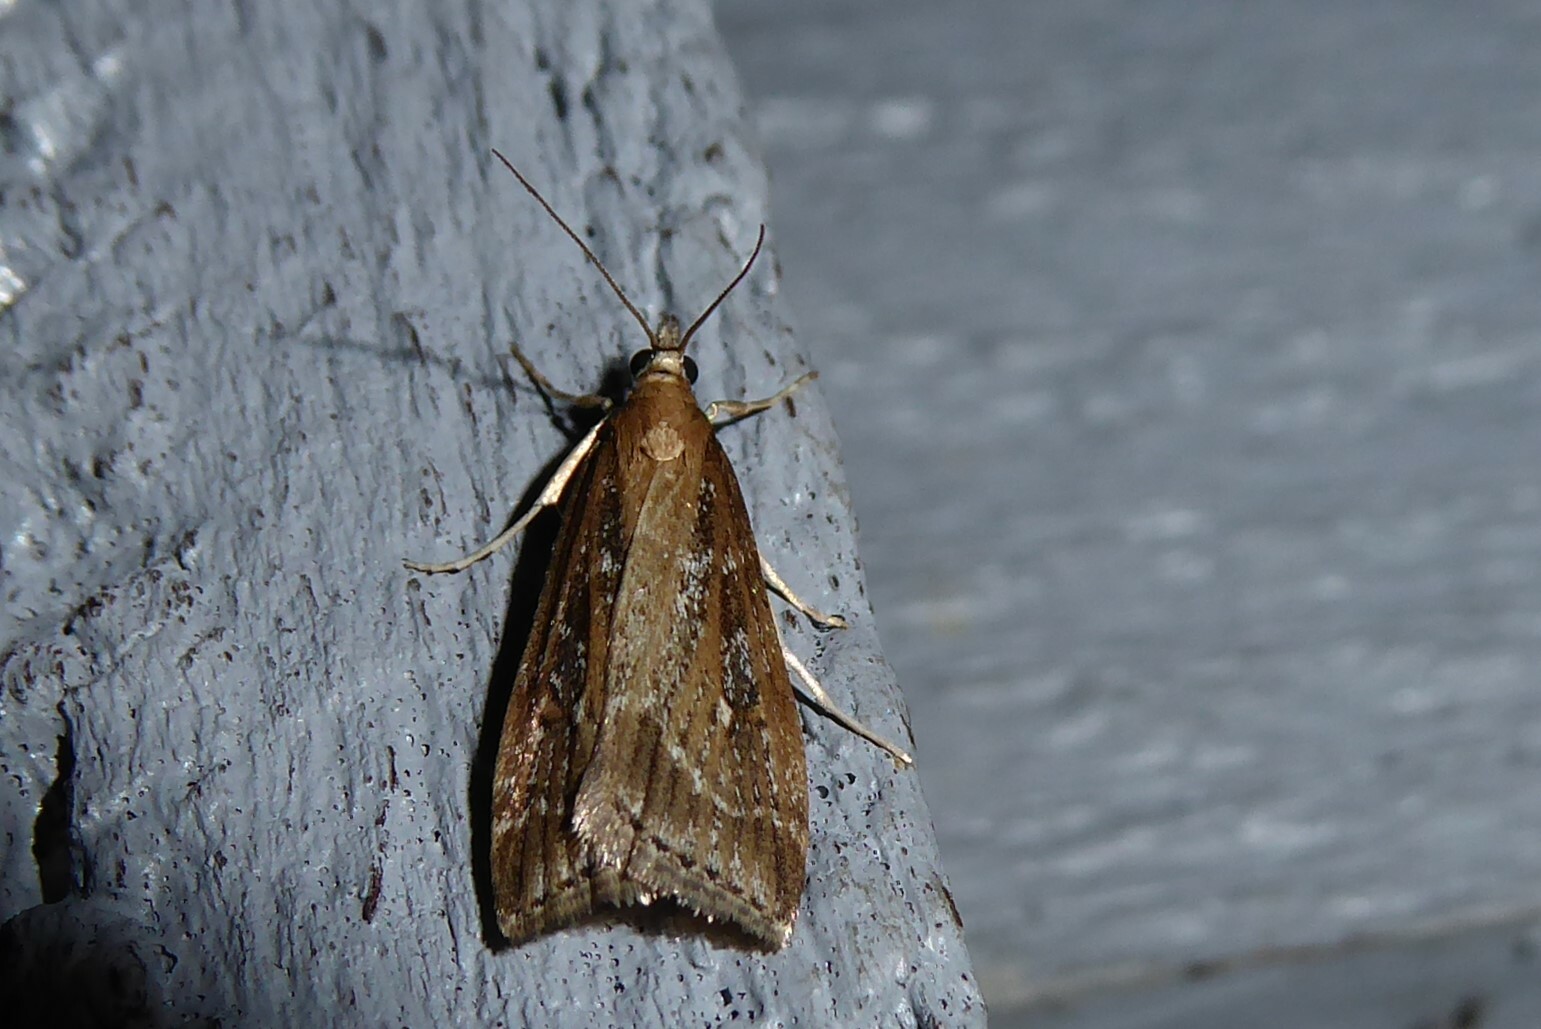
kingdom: Animalia
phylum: Arthropoda
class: Insecta
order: Lepidoptera
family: Crambidae
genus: Eudonia
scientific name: Eudonia octophora
